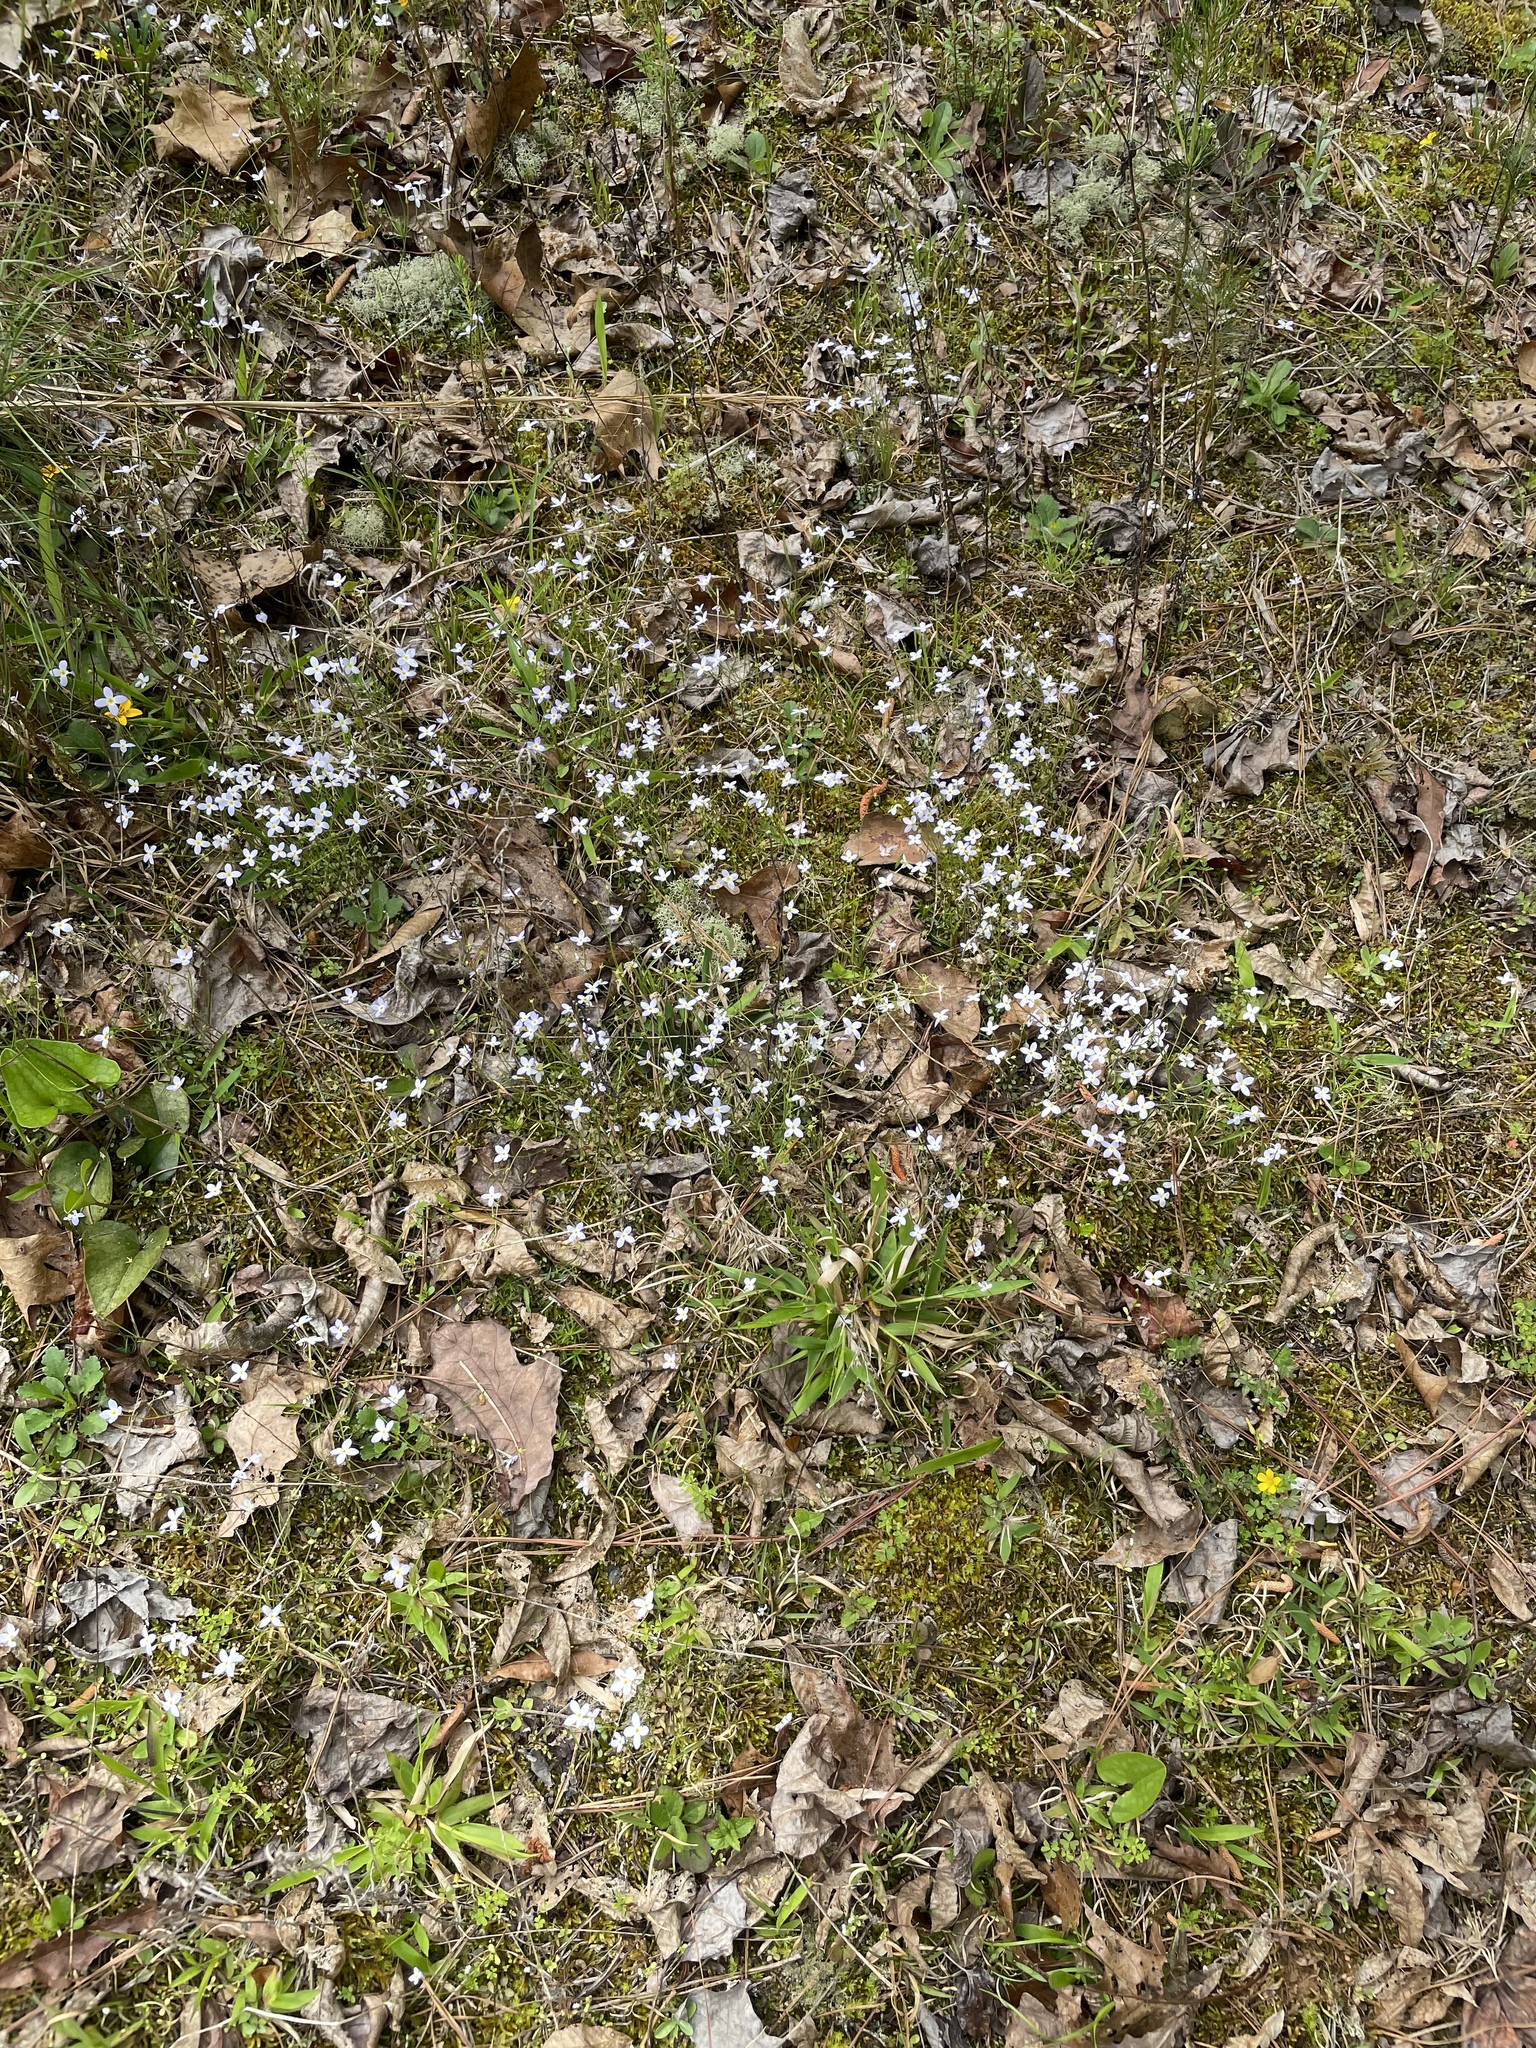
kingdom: Plantae
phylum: Tracheophyta
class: Magnoliopsida
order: Gentianales
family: Rubiaceae
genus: Houstonia
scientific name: Houstonia caerulea
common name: Bluets
